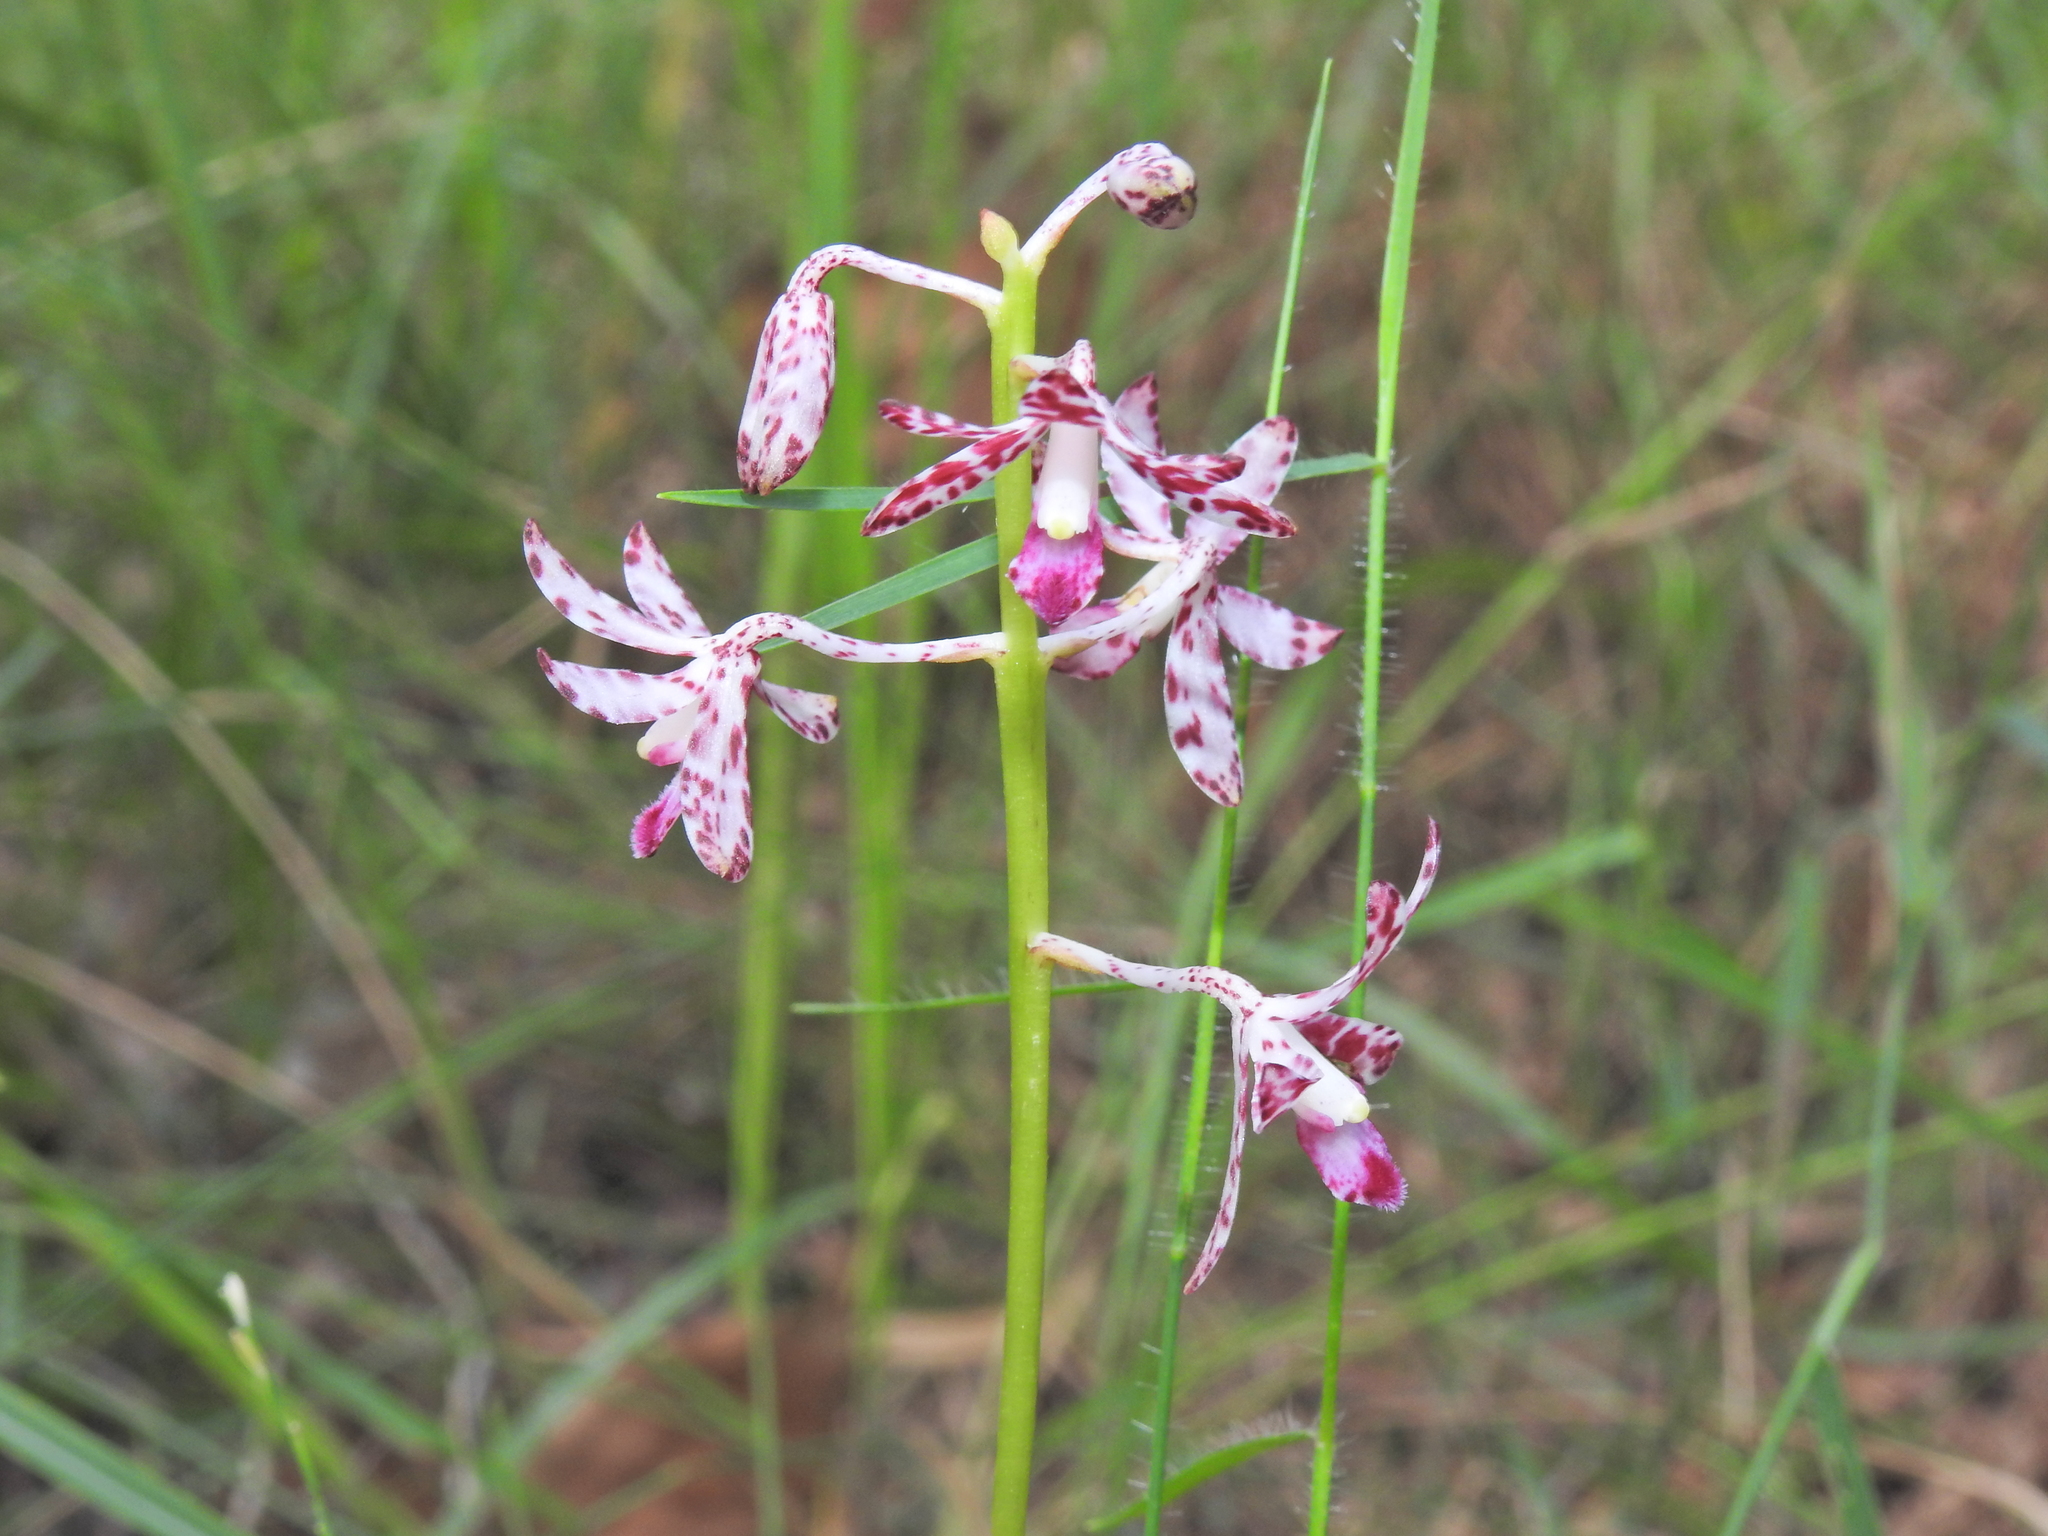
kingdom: Plantae
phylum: Tracheophyta
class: Liliopsida
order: Asparagales
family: Orchidaceae
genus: Dipodium
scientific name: Dipodium variegatum
